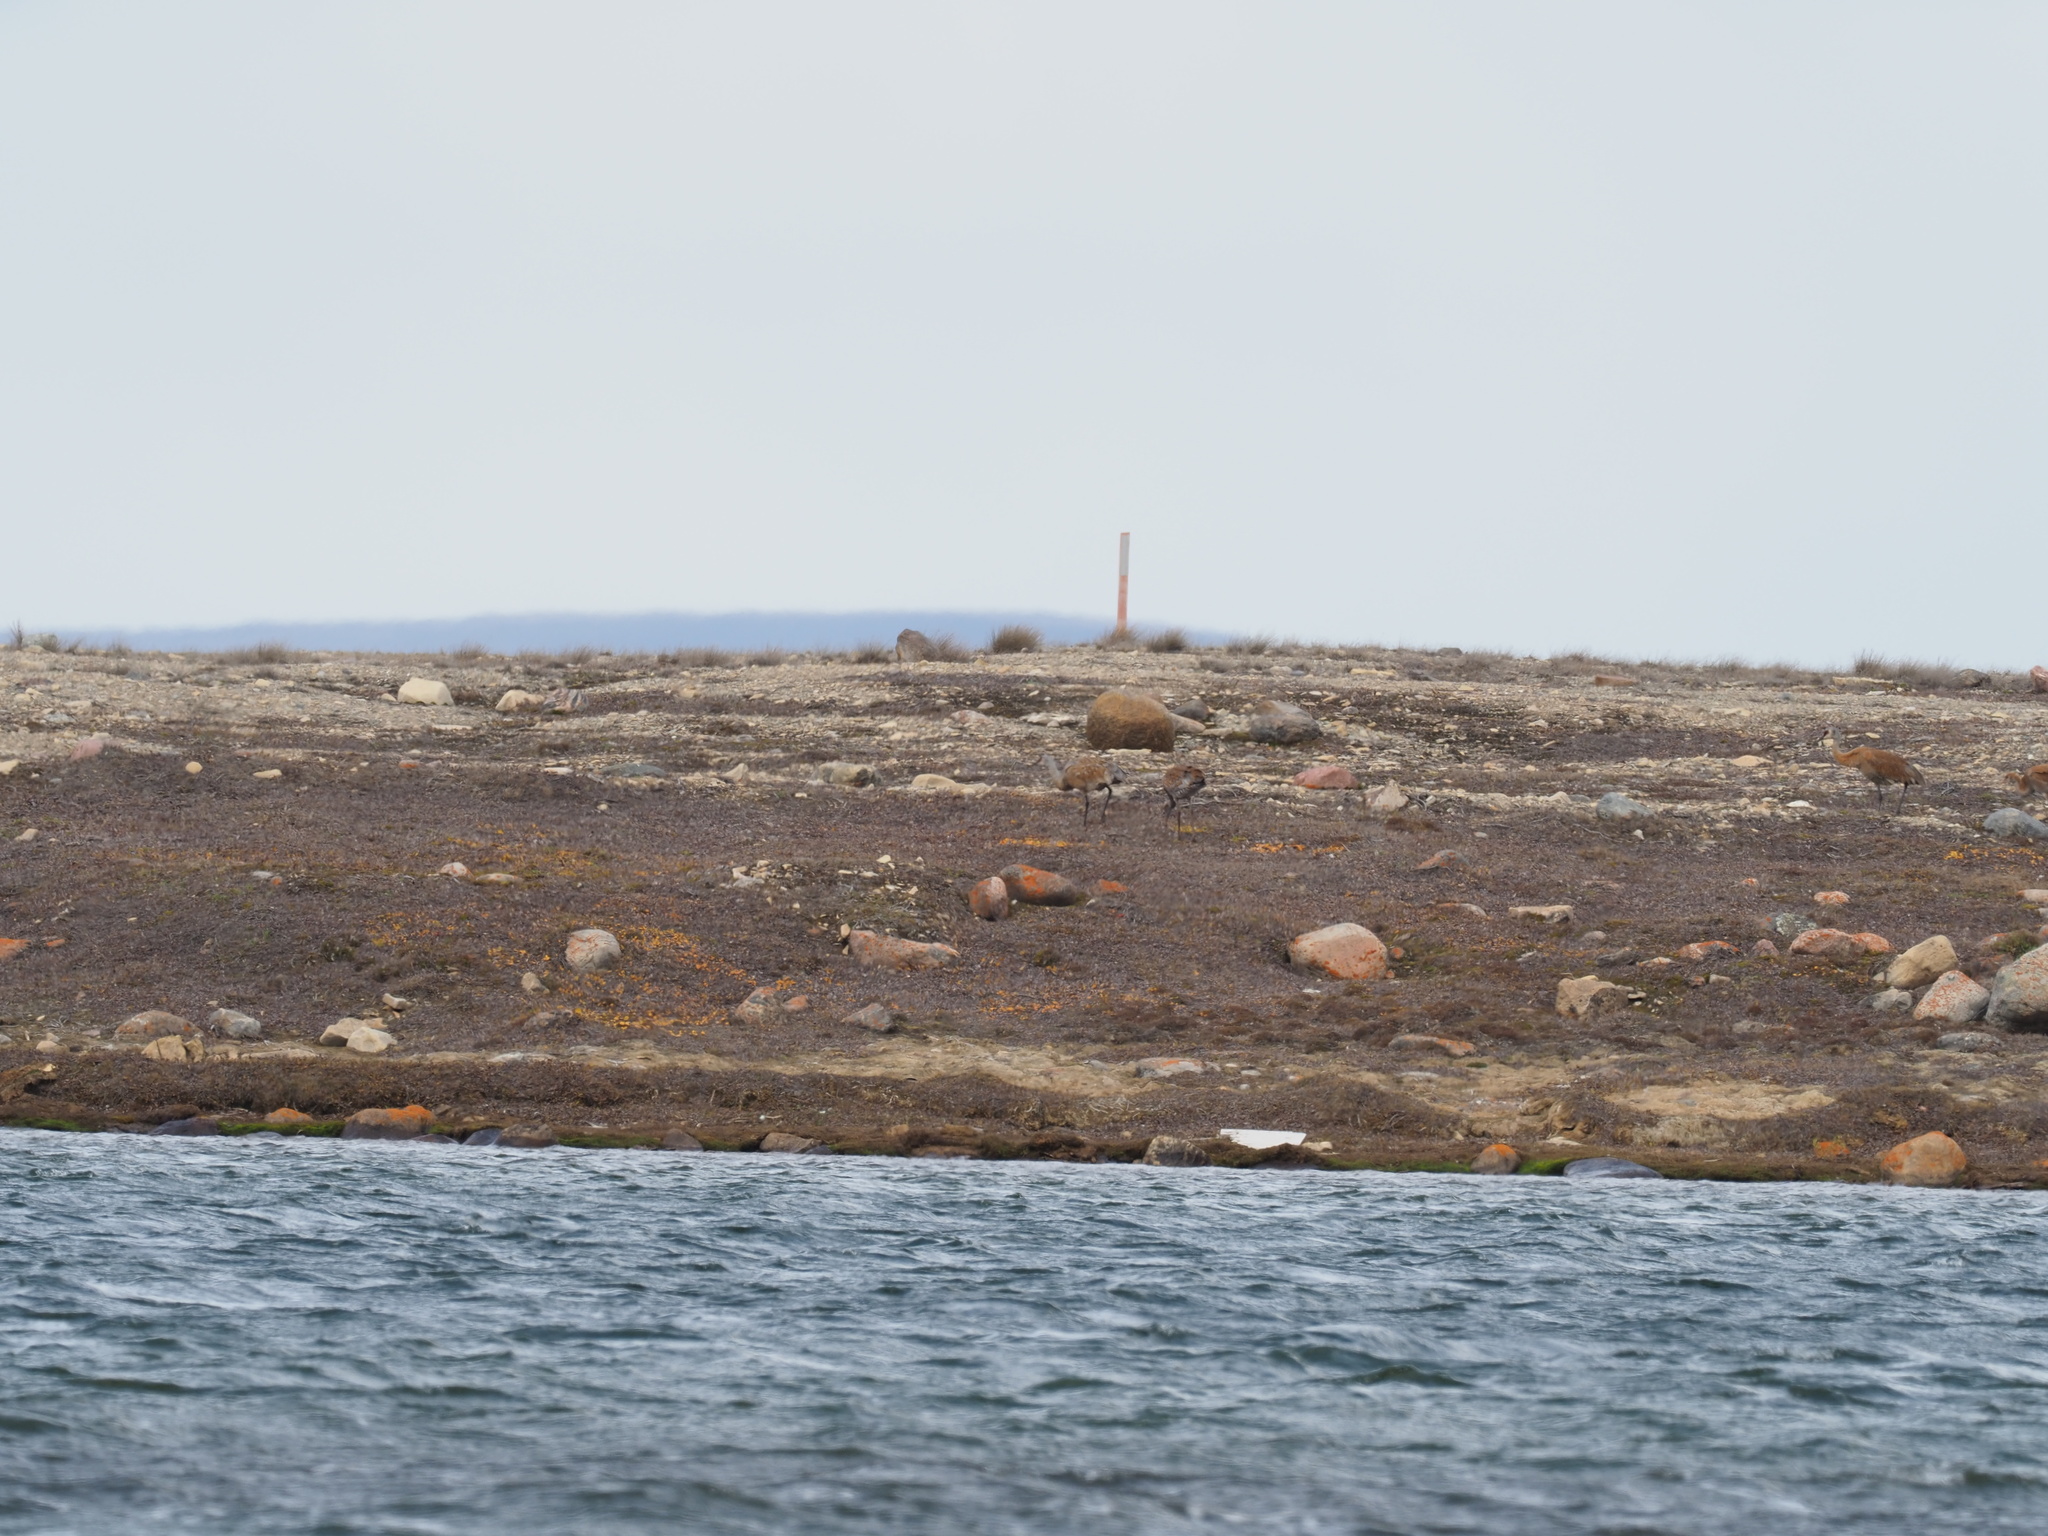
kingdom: Animalia
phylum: Chordata
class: Aves
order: Gruiformes
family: Gruidae
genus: Grus
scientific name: Grus canadensis
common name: Sandhill crane
